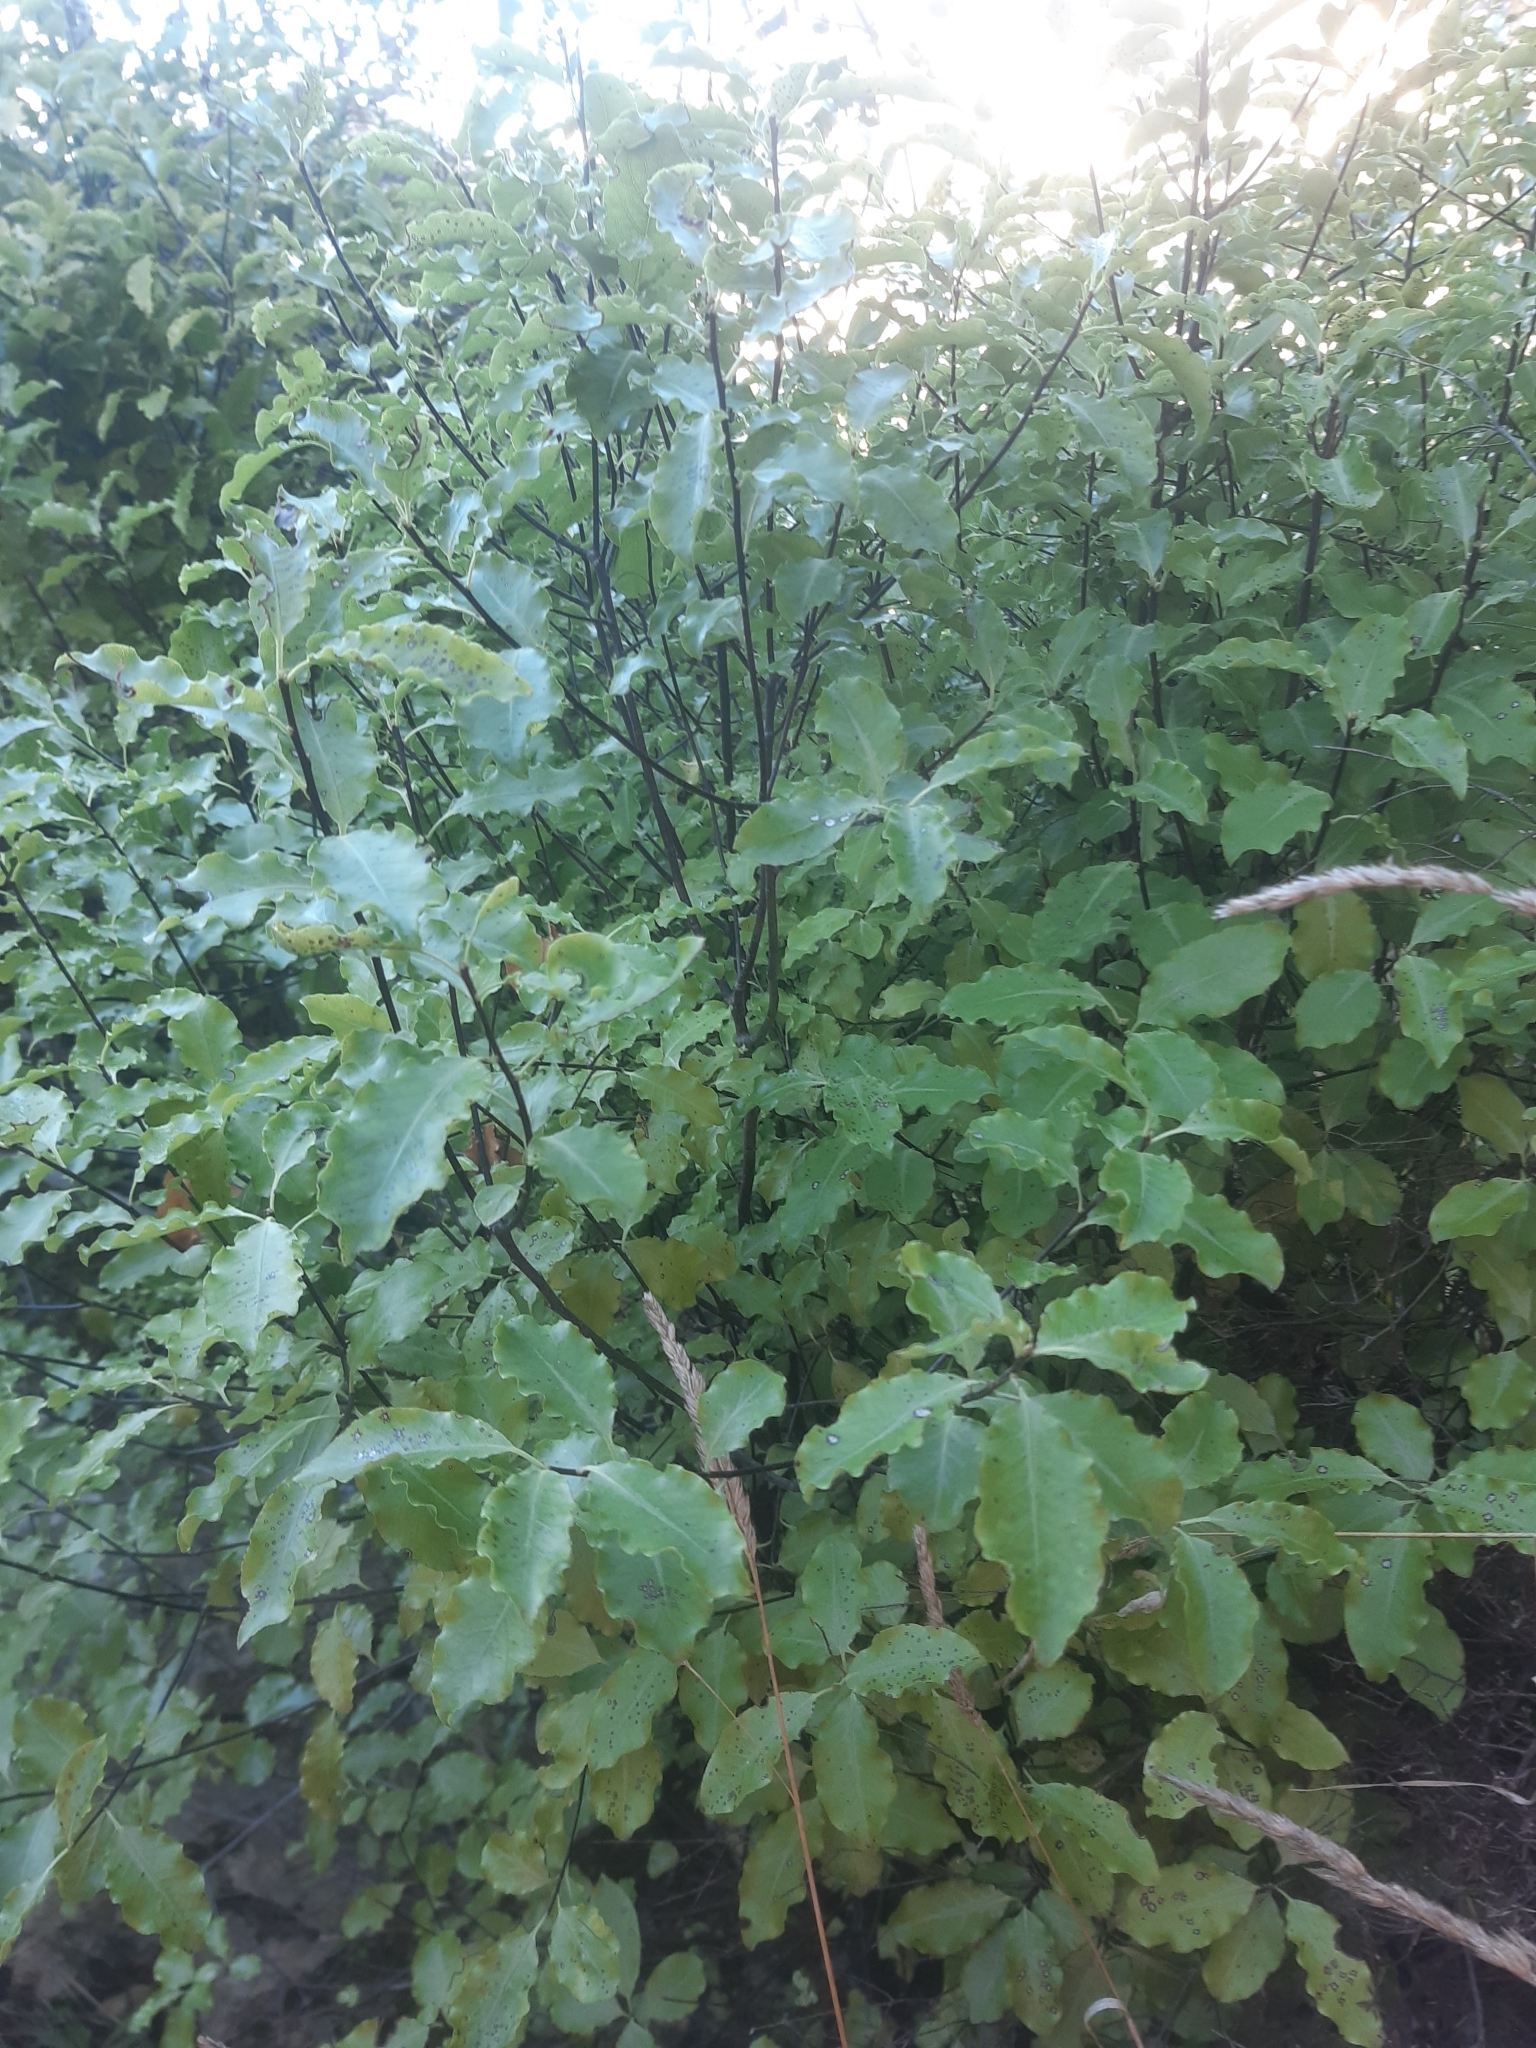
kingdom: Plantae
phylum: Tracheophyta
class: Magnoliopsida
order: Apiales
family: Pittosporaceae
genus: Pittosporum
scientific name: Pittosporum tenuifolium
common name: Kohuhu
